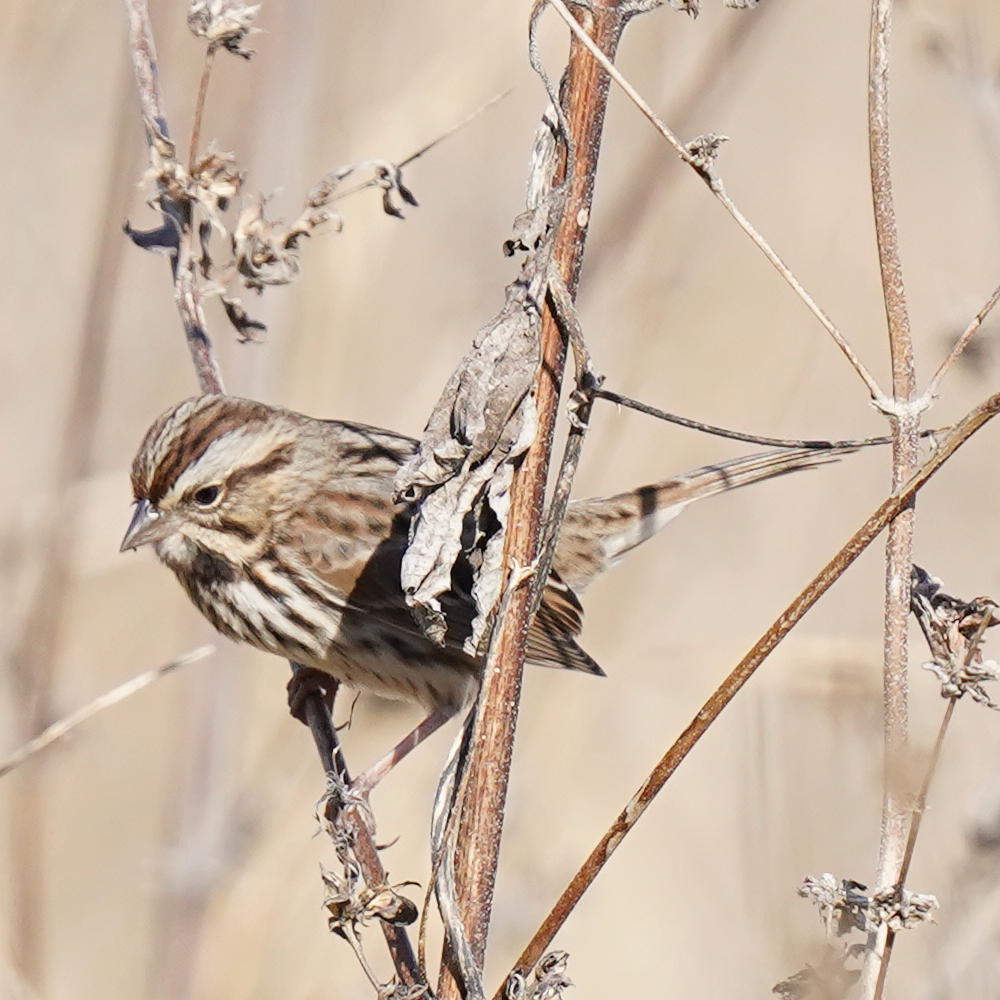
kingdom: Animalia
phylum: Chordata
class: Aves
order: Passeriformes
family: Passerellidae
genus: Melospiza
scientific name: Melospiza melodia
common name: Song sparrow
